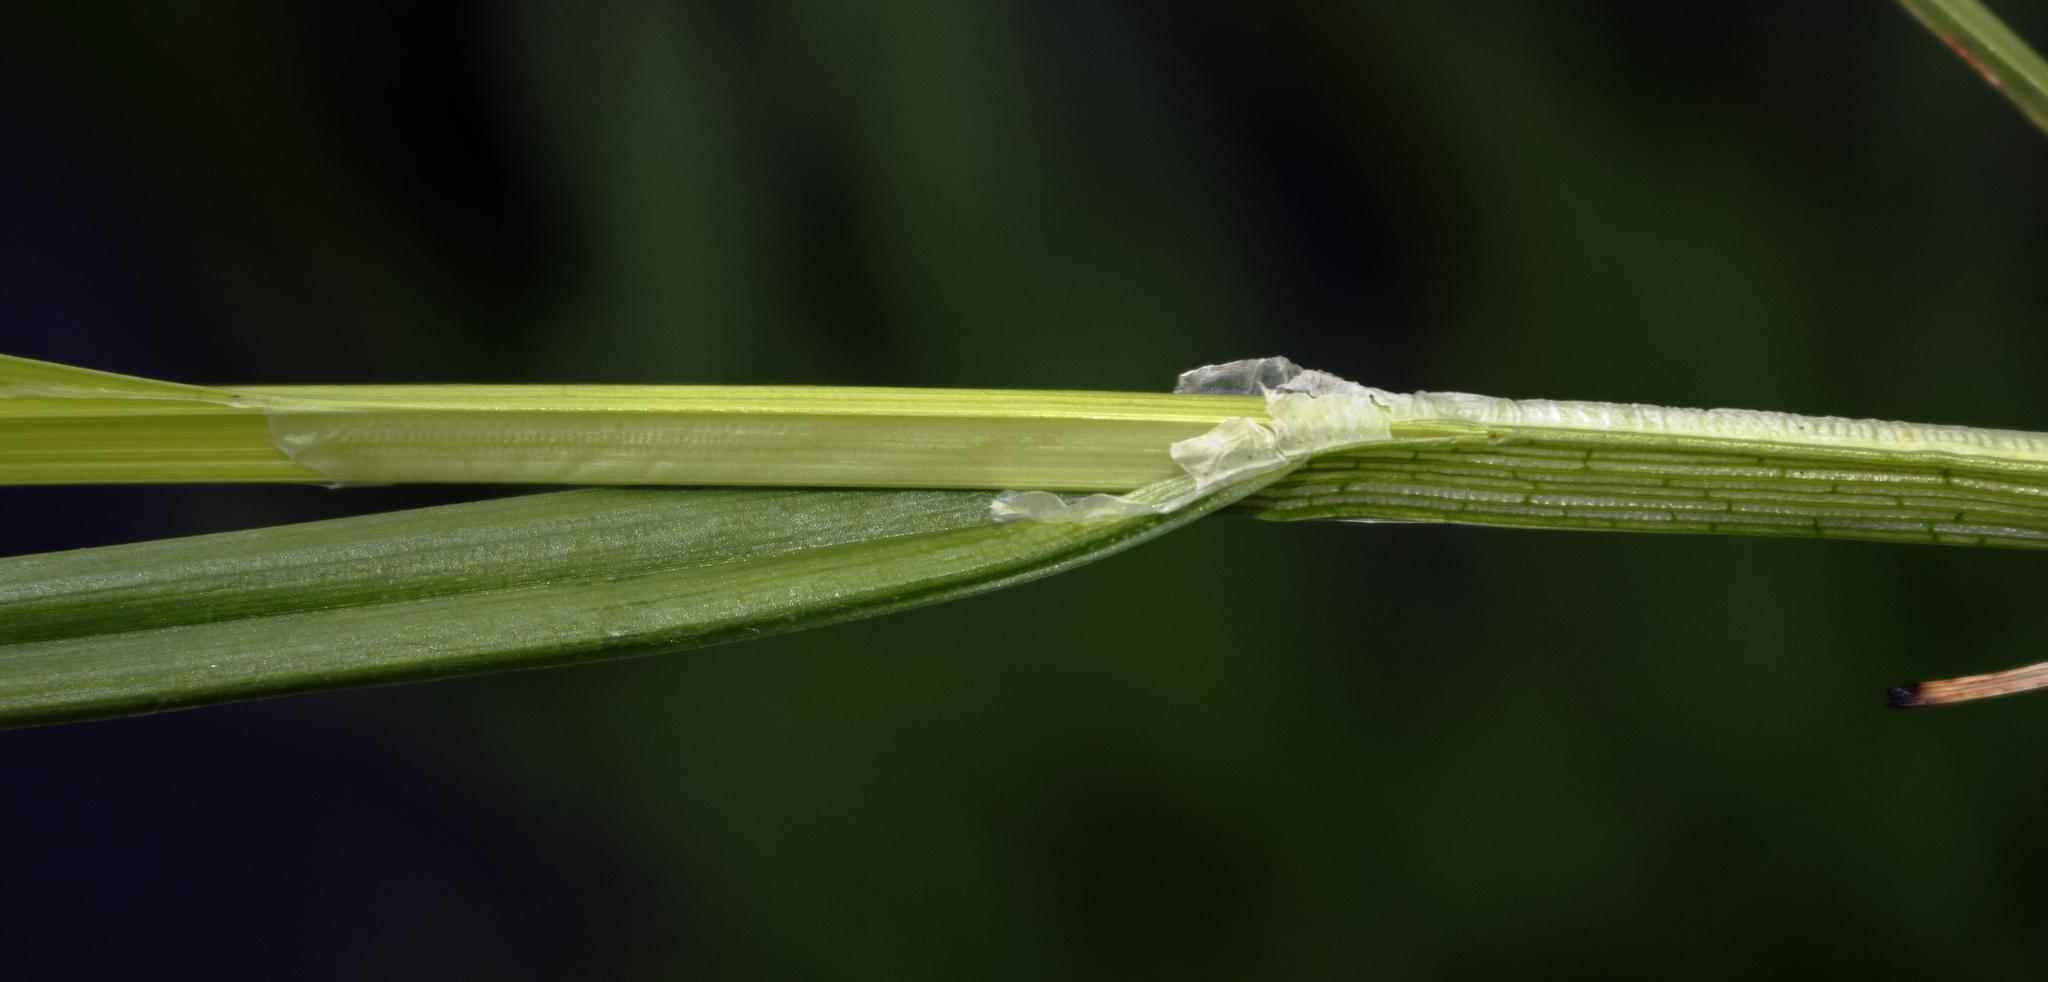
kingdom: Plantae
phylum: Tracheophyta
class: Liliopsida
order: Poales
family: Cyperaceae
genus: Carex
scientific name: Carex stipata
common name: Awl-fruited sedge
